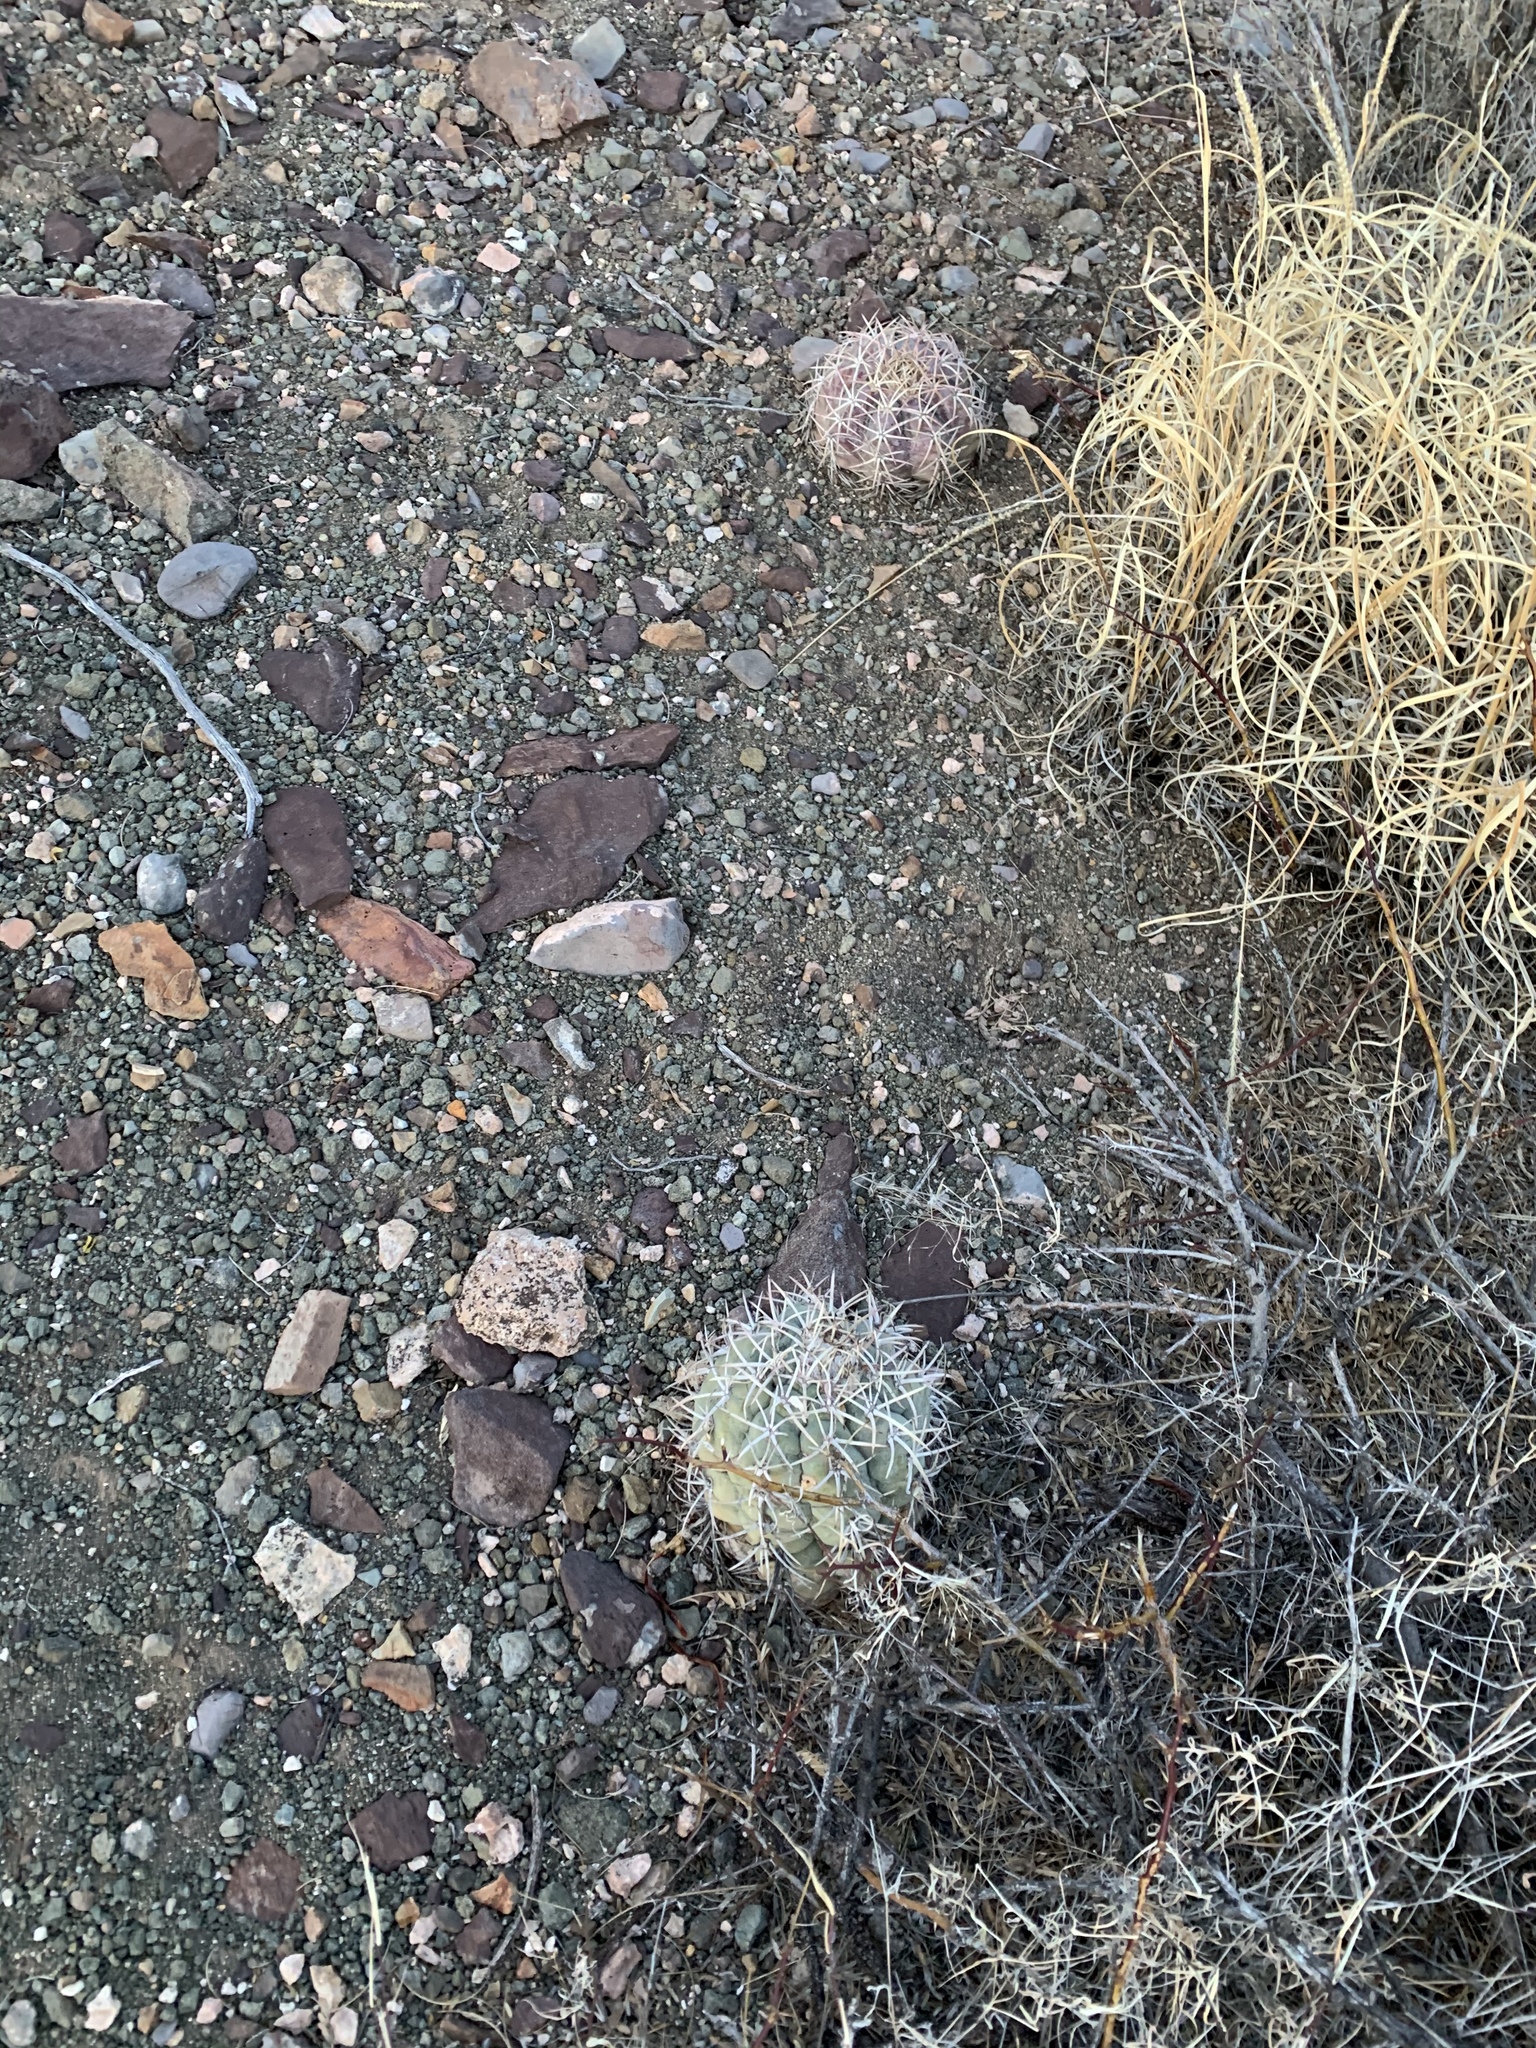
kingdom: Plantae
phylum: Tracheophyta
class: Magnoliopsida
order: Caryophyllales
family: Cactaceae
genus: Echinocactus
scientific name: Echinocactus horizonthalonius
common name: Devilshead
